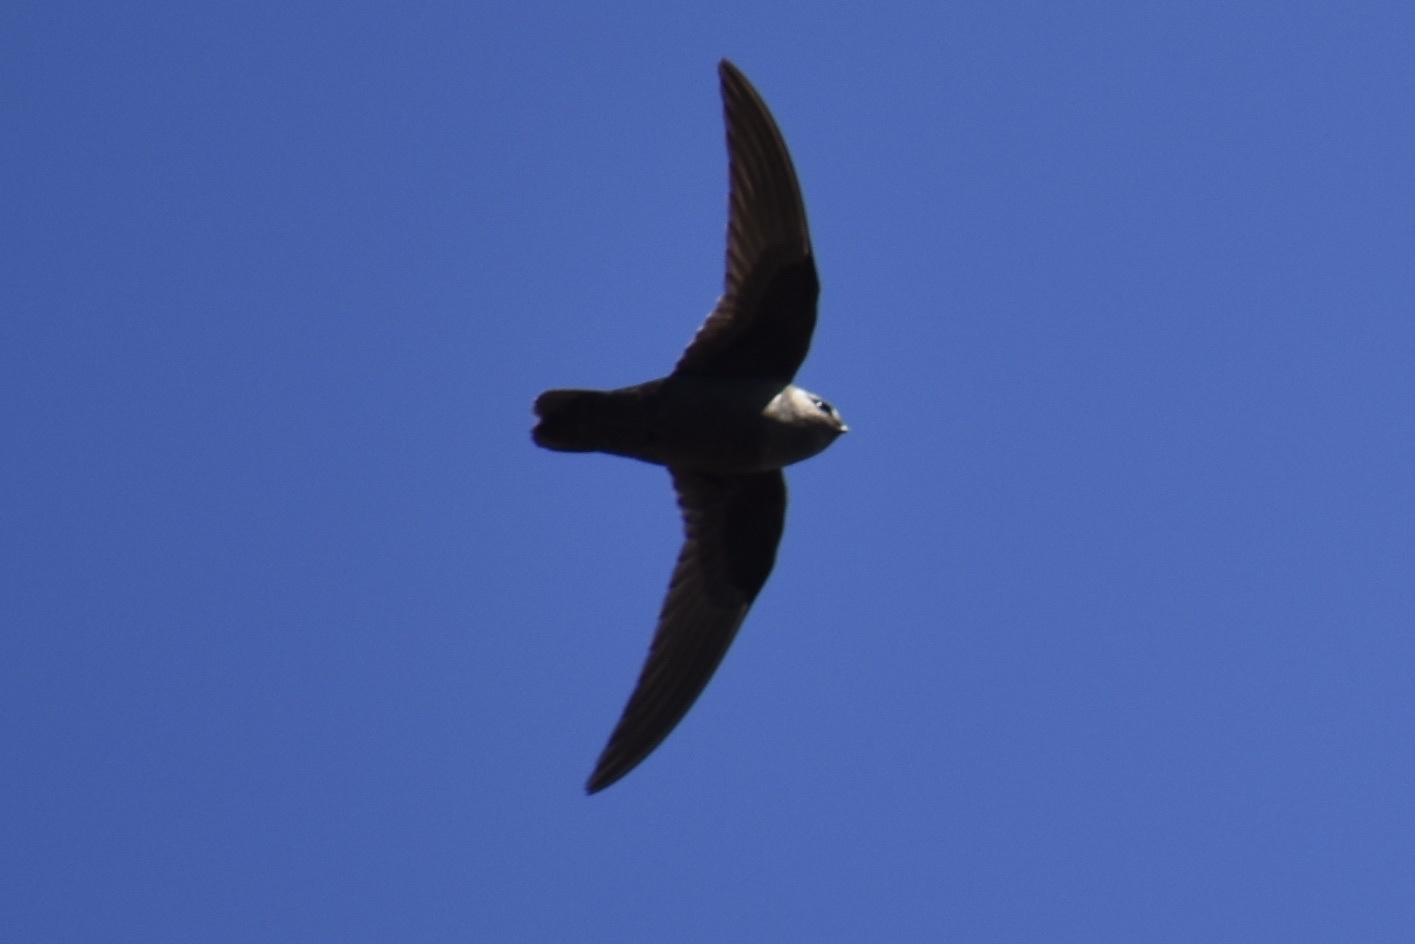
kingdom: Animalia
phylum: Chordata
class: Aves
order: Apodiformes
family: Apodidae
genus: Cypseloides
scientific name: Cypseloides niger
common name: Black swift
